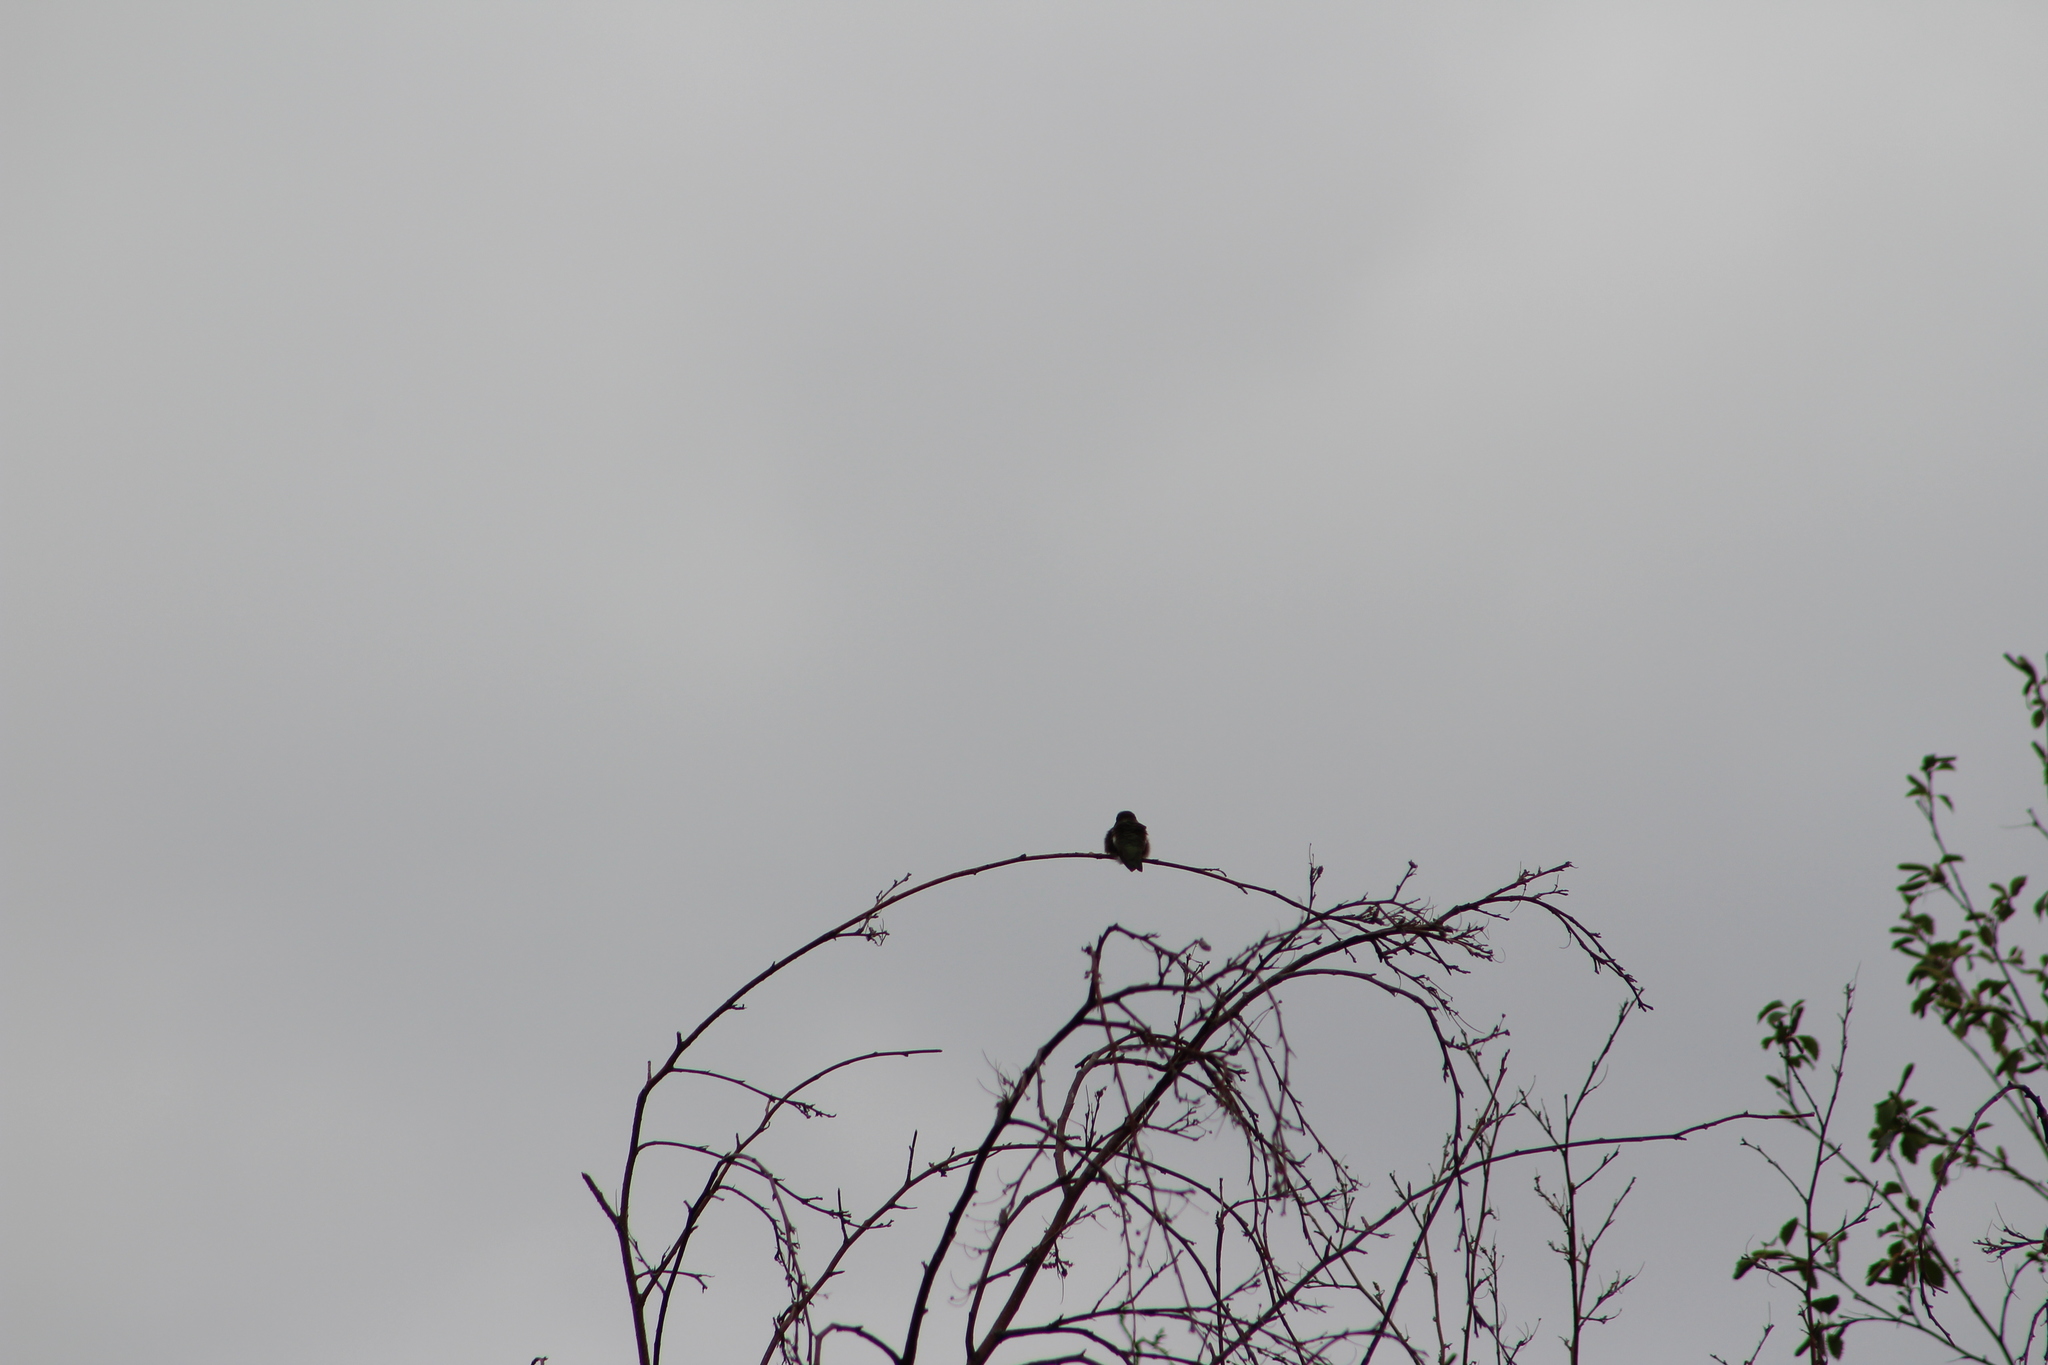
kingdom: Animalia
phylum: Chordata
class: Aves
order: Apodiformes
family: Trochilidae
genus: Archilochus
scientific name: Archilochus alexandri
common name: Black-chinned hummingbird
